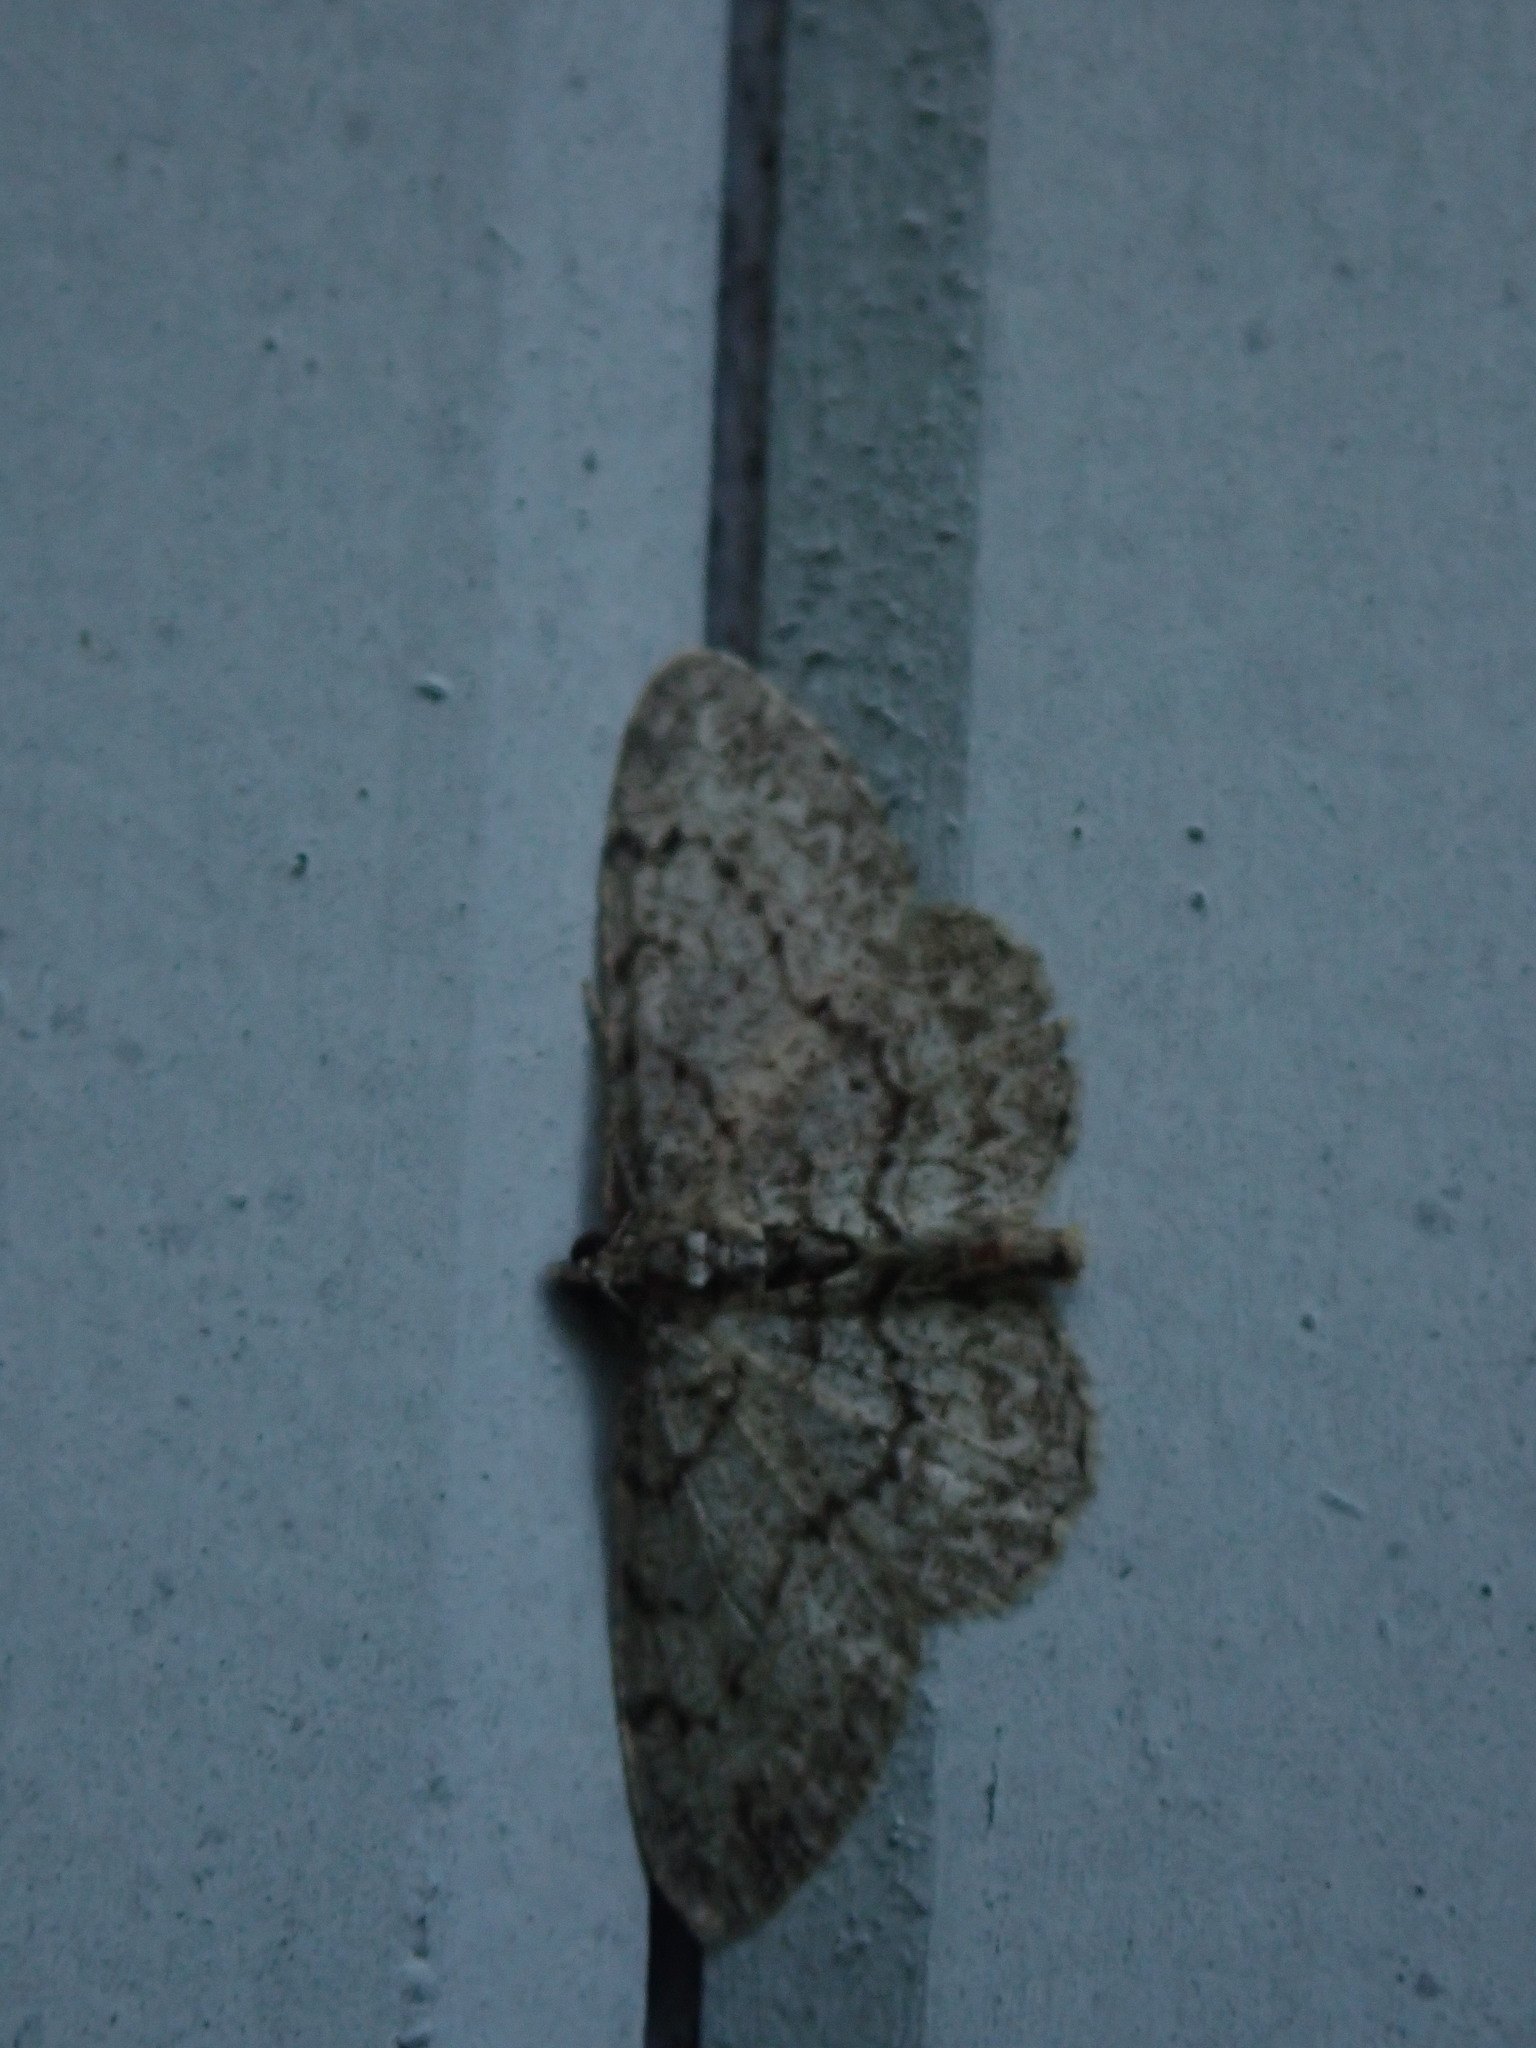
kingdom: Animalia
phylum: Arthropoda
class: Insecta
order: Lepidoptera
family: Geometridae
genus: Protoboarmia
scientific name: Protoboarmia porcelaria
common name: Porcelain gray
